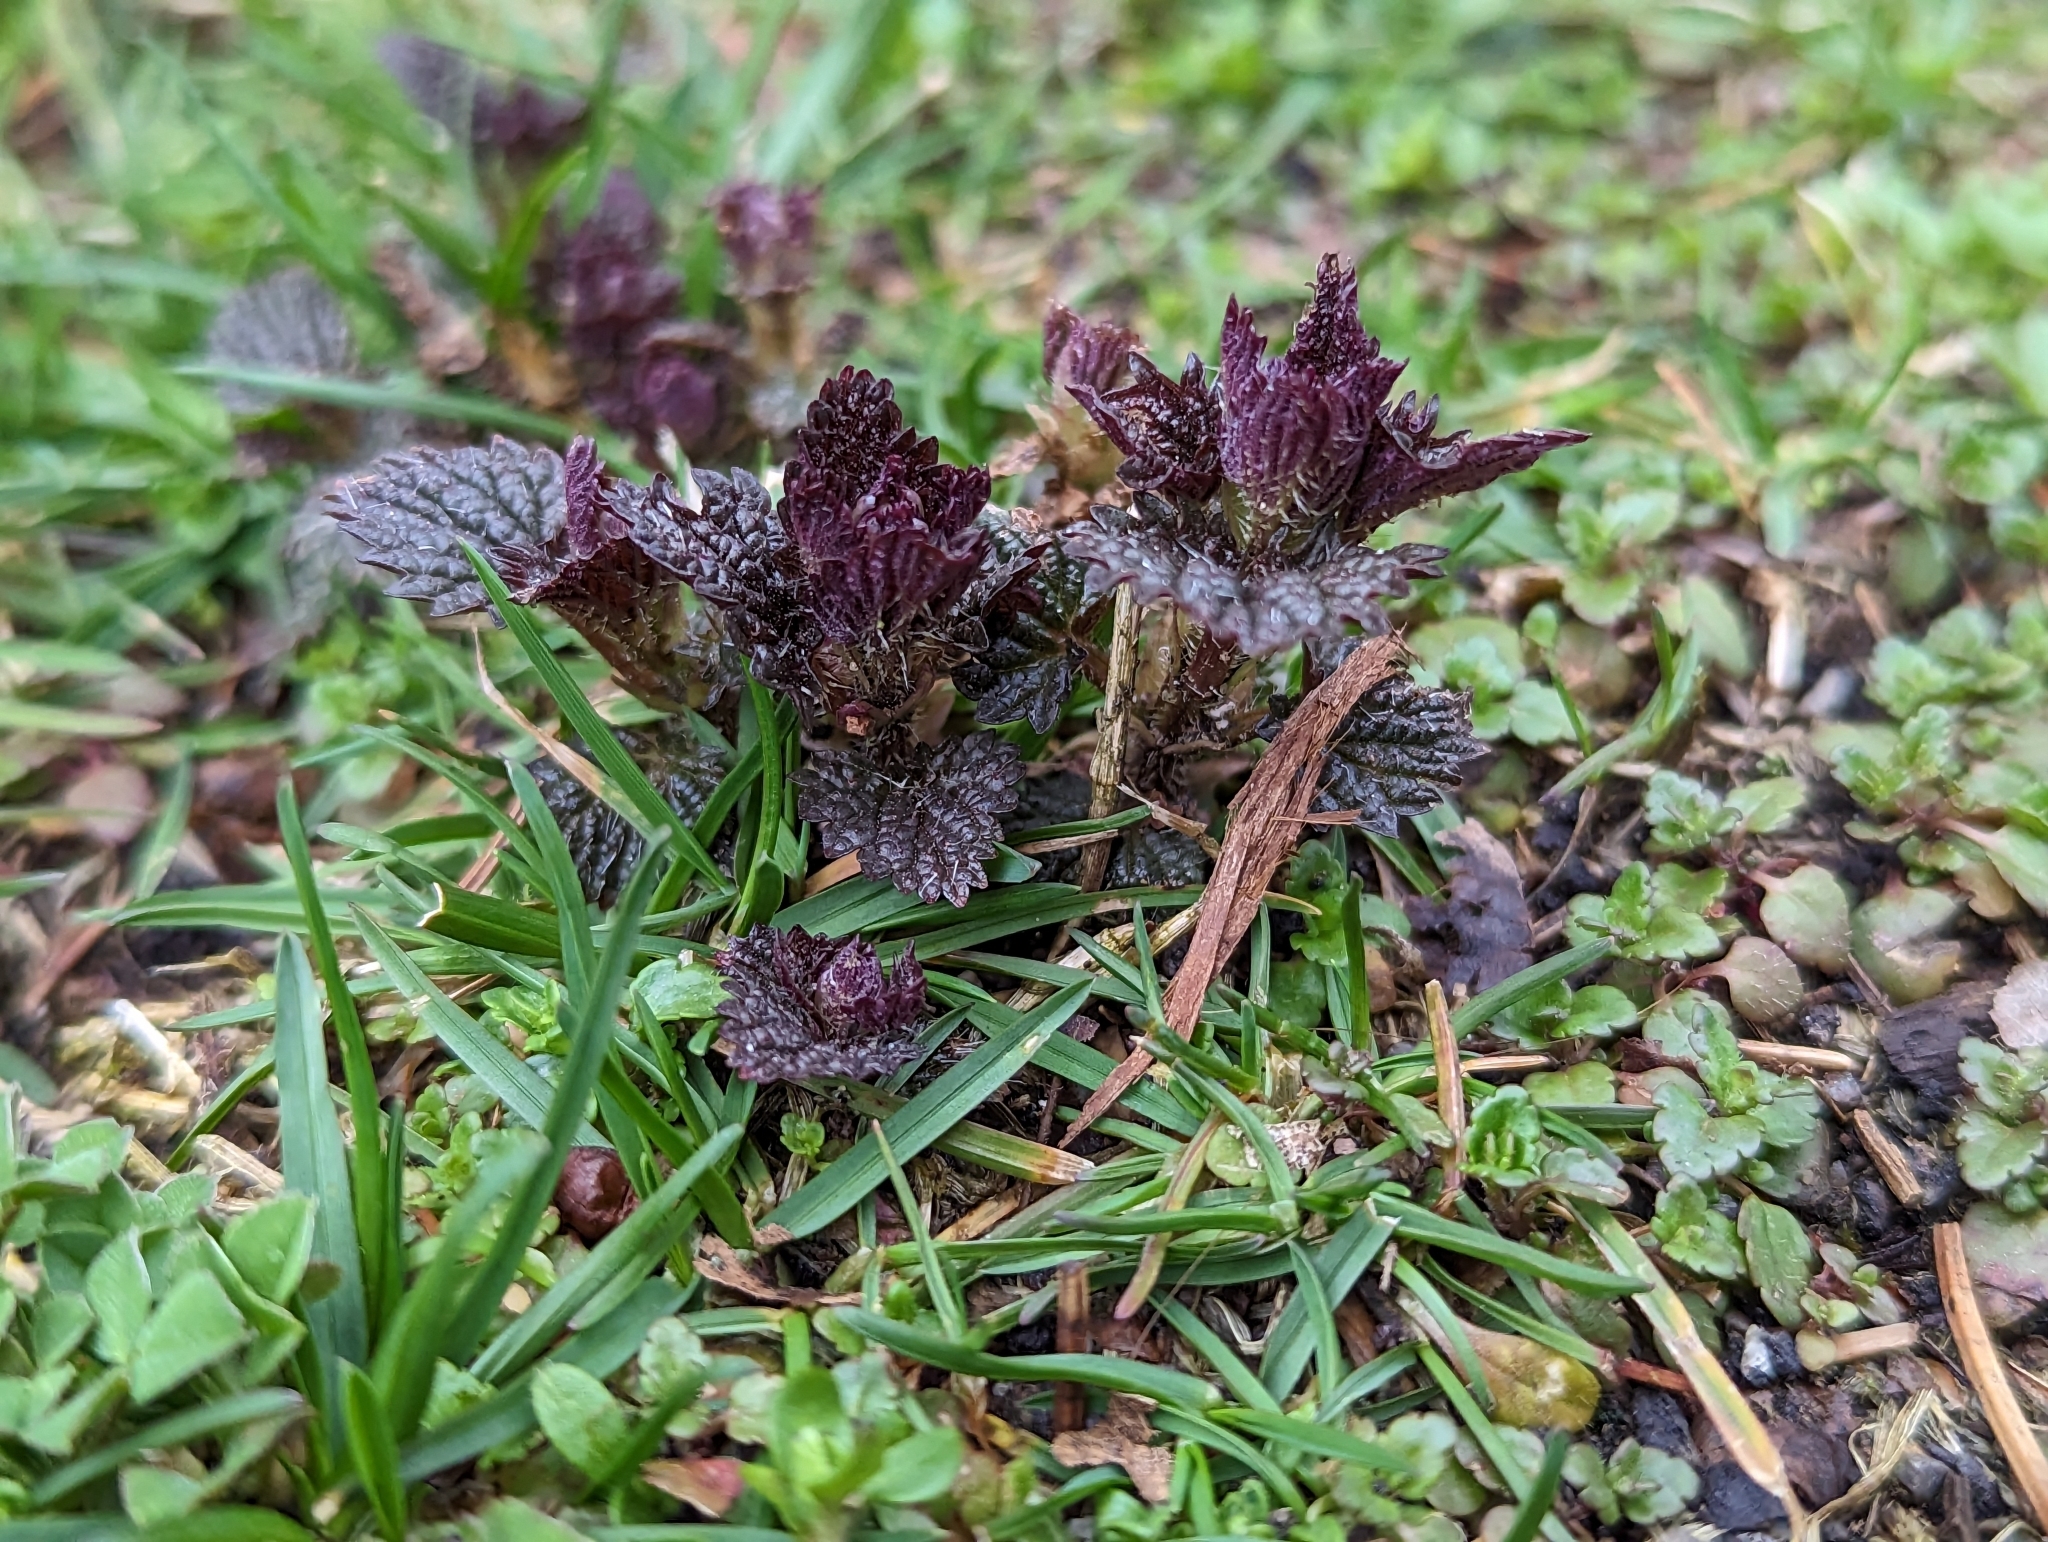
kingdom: Plantae
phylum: Tracheophyta
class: Magnoliopsida
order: Rosales
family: Urticaceae
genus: Urtica
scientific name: Urtica dioica
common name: Common nettle
